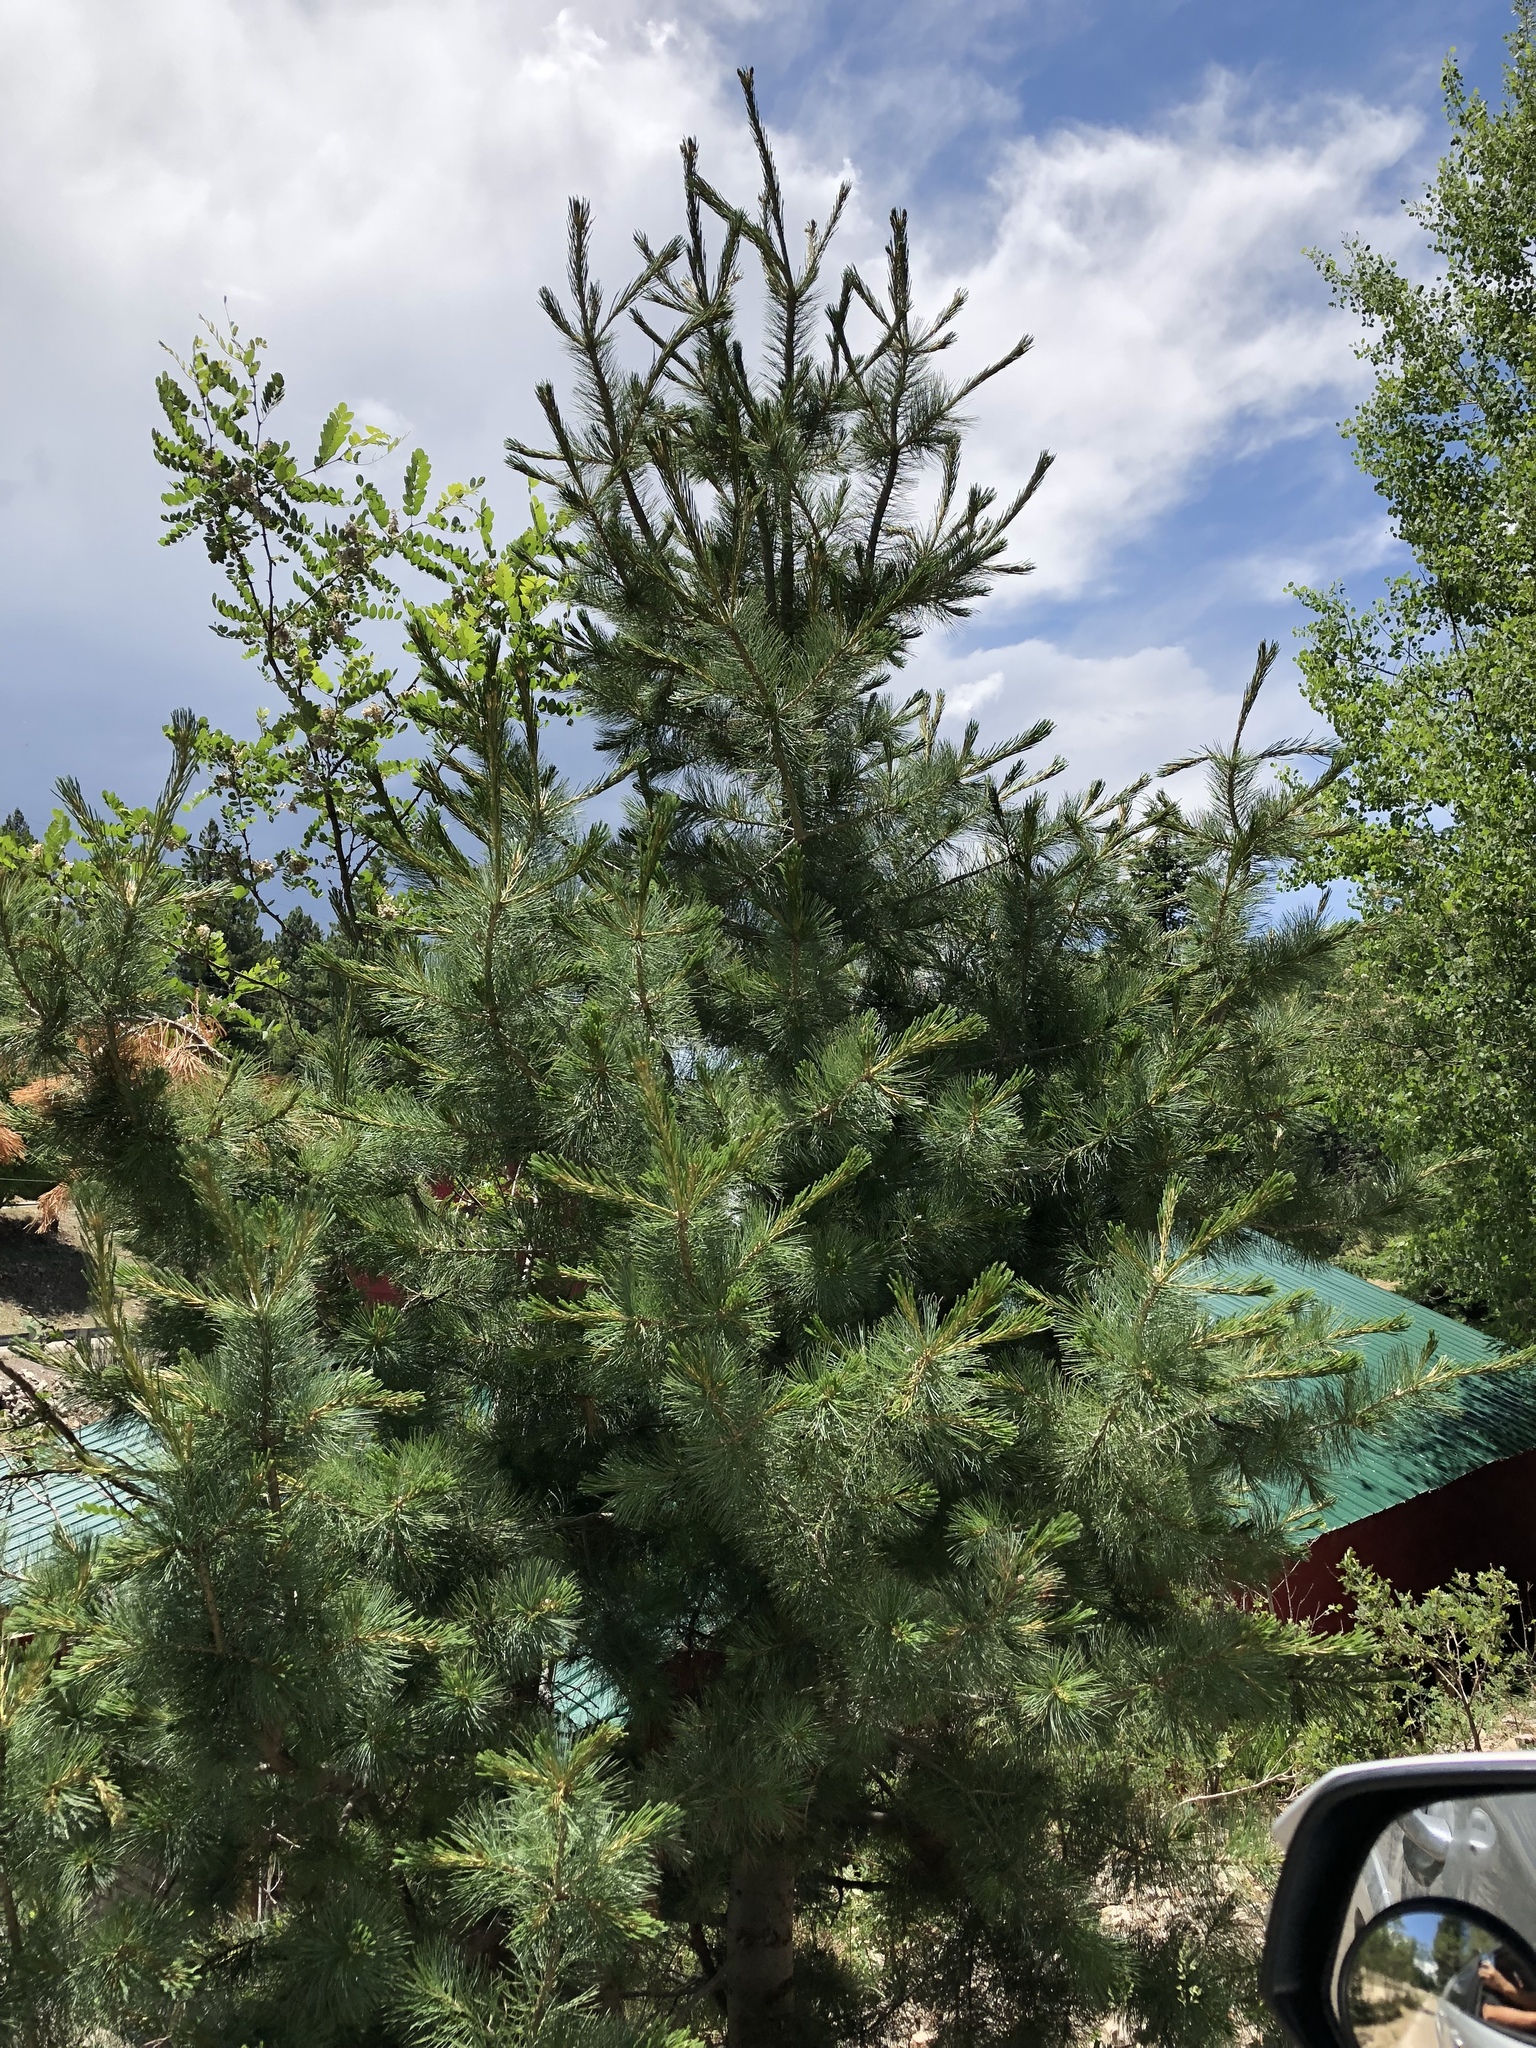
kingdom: Plantae
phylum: Tracheophyta
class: Pinopsida
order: Pinales
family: Pinaceae
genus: Pinus
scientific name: Pinus strobiformis
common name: Southwestern white pine
